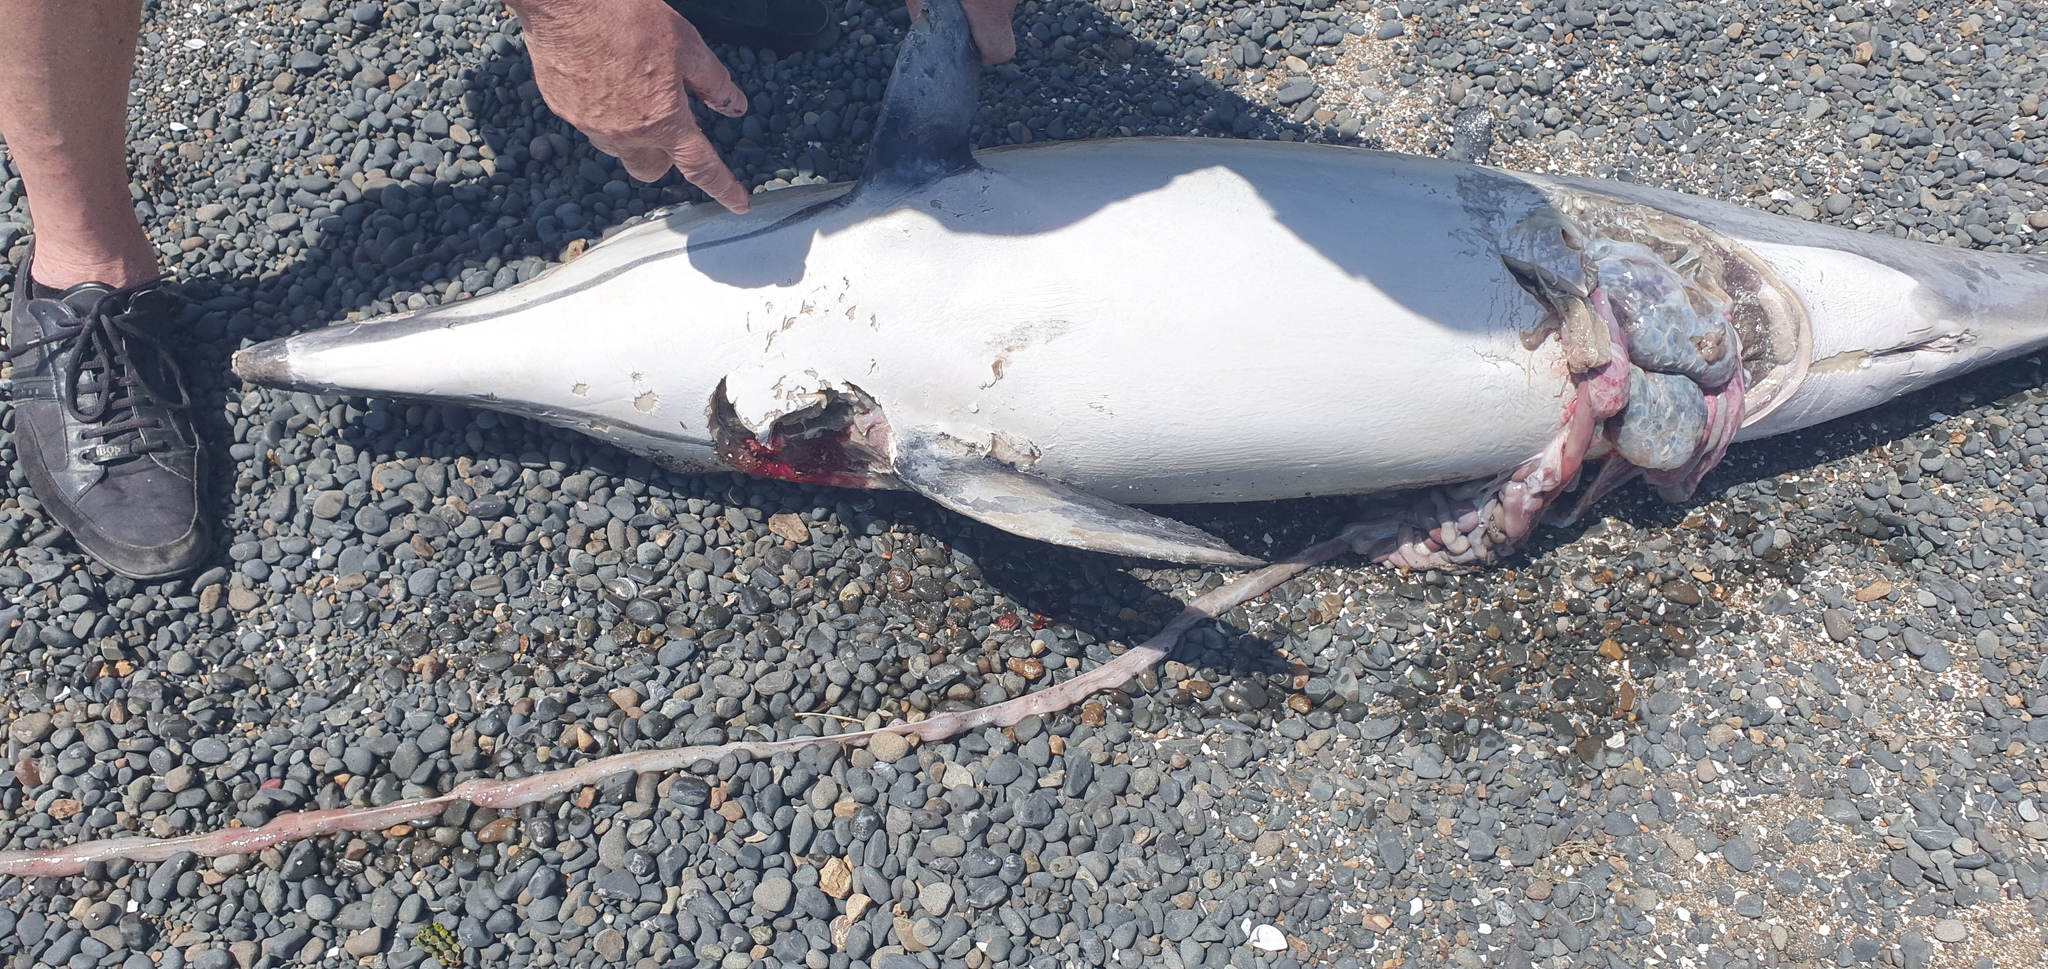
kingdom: Animalia
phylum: Chordata
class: Mammalia
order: Cetacea
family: Delphinidae
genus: Delphinus
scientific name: Delphinus delphis
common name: Common dolphin
